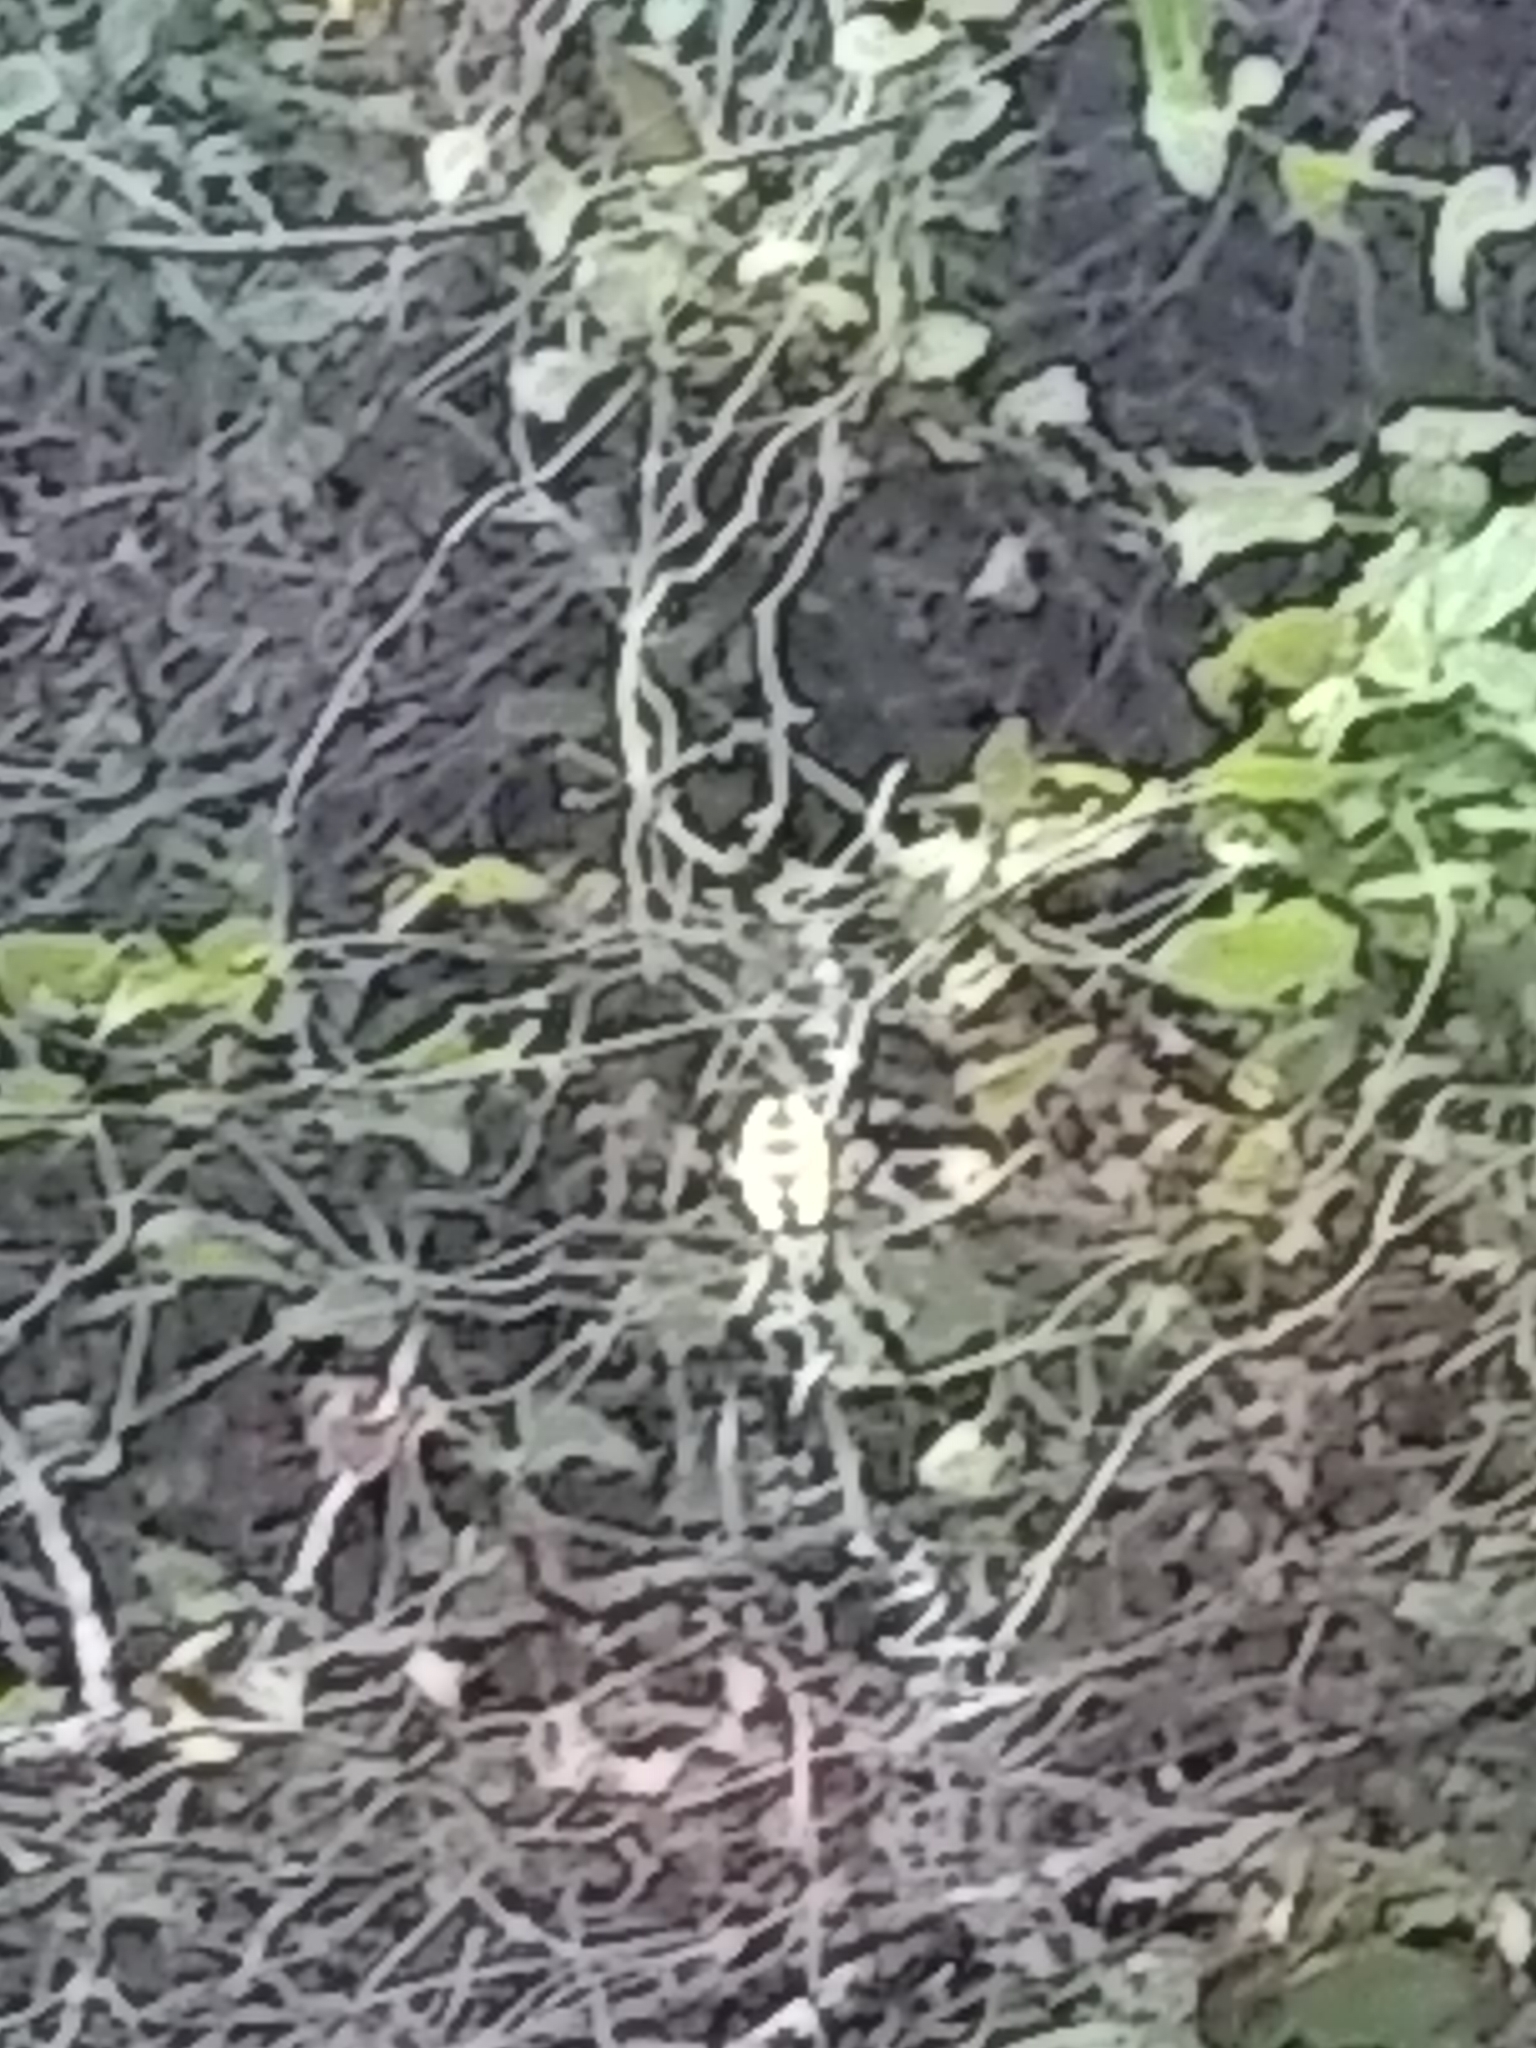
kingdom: Animalia
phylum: Arthropoda
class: Arachnida
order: Araneae
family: Araneidae
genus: Argiope
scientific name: Argiope aurantia
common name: Orb weavers
